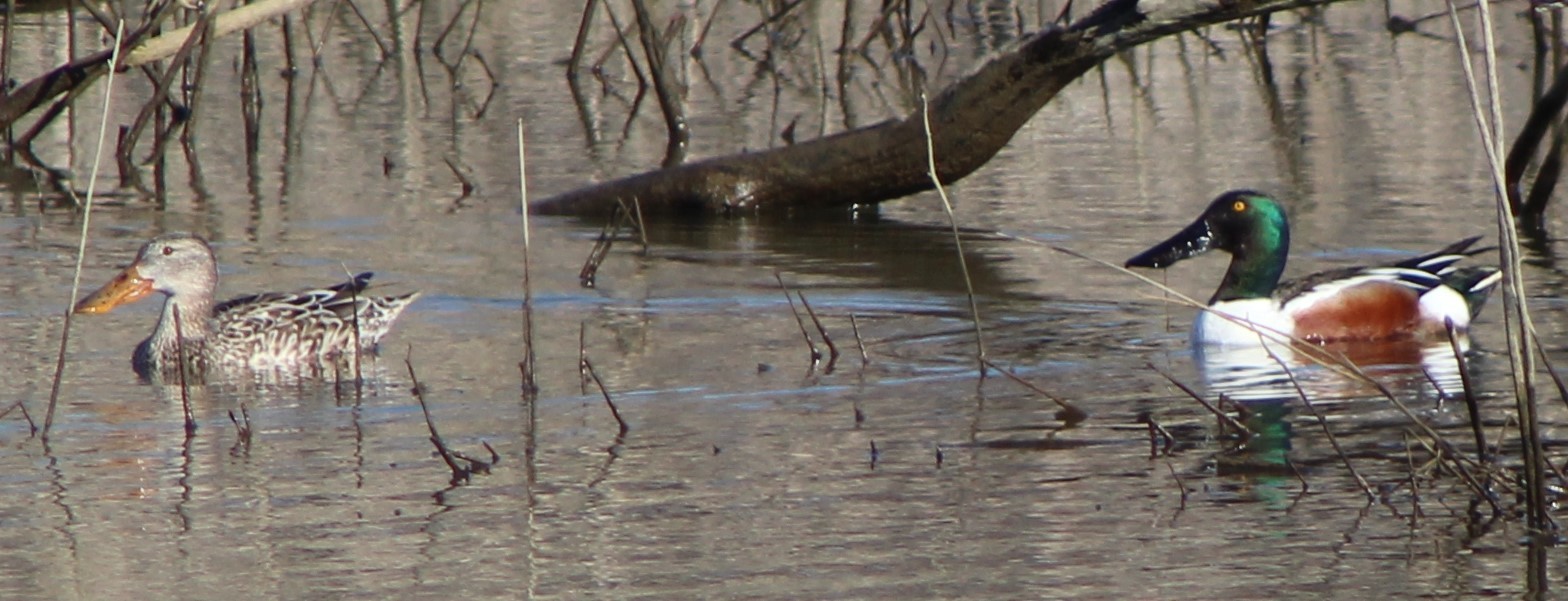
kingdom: Animalia
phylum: Chordata
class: Aves
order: Anseriformes
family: Anatidae
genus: Spatula
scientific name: Spatula clypeata
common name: Northern shoveler
